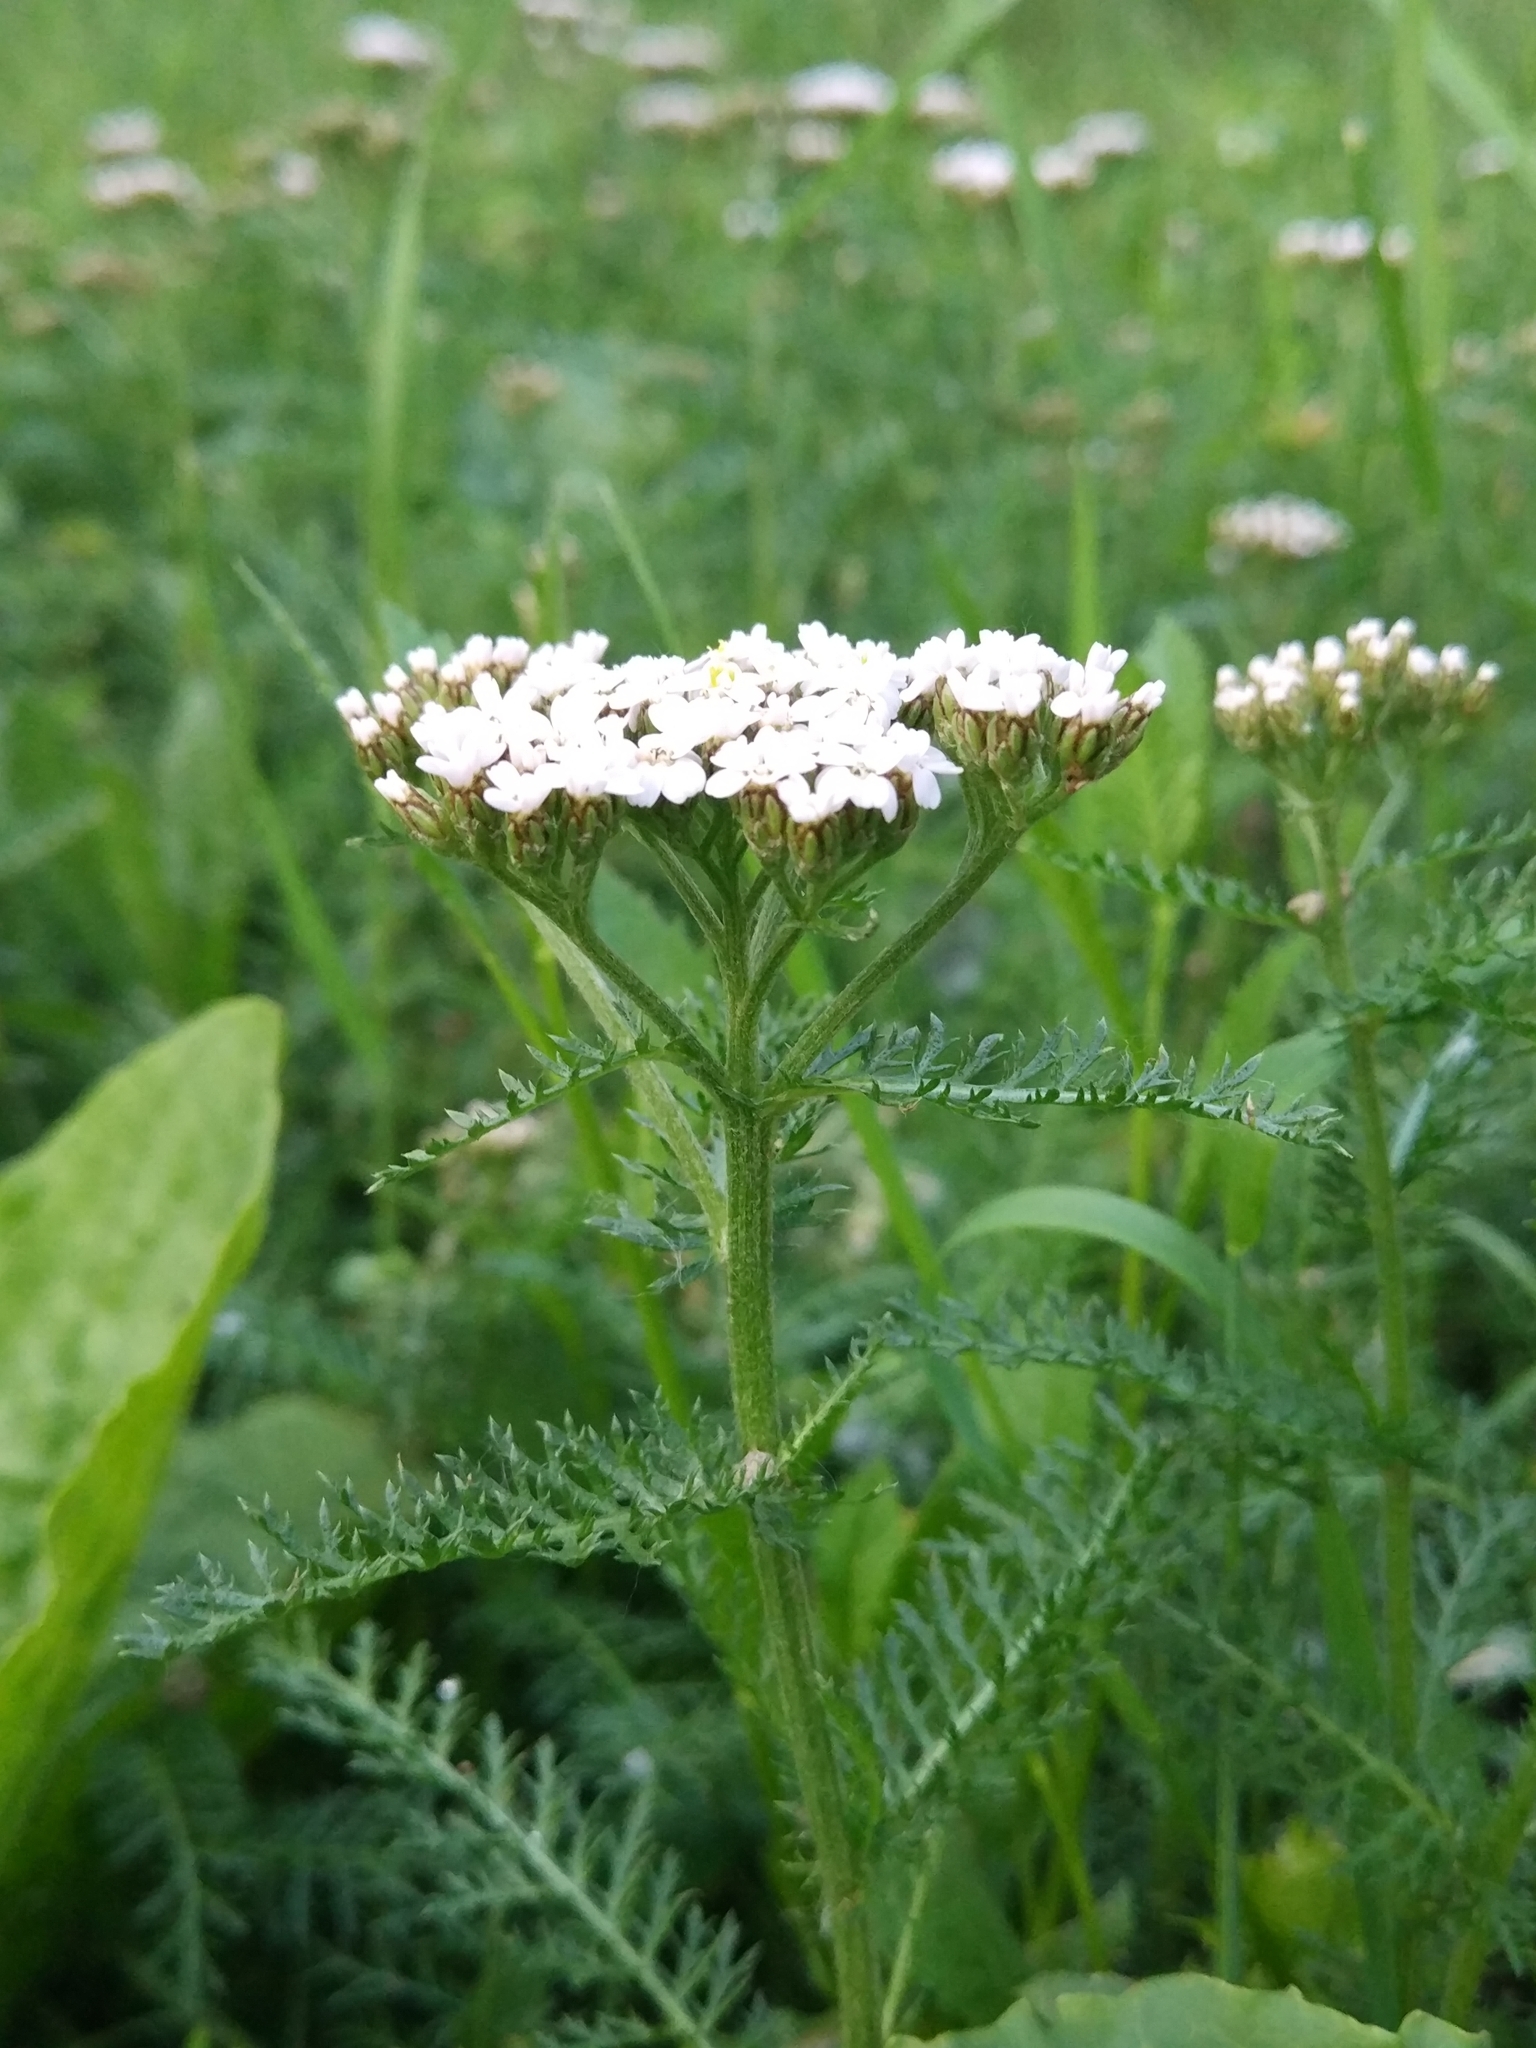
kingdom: Plantae
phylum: Tracheophyta
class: Magnoliopsida
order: Asterales
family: Asteraceae
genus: Achillea
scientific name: Achillea millefolium
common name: Yarrow
